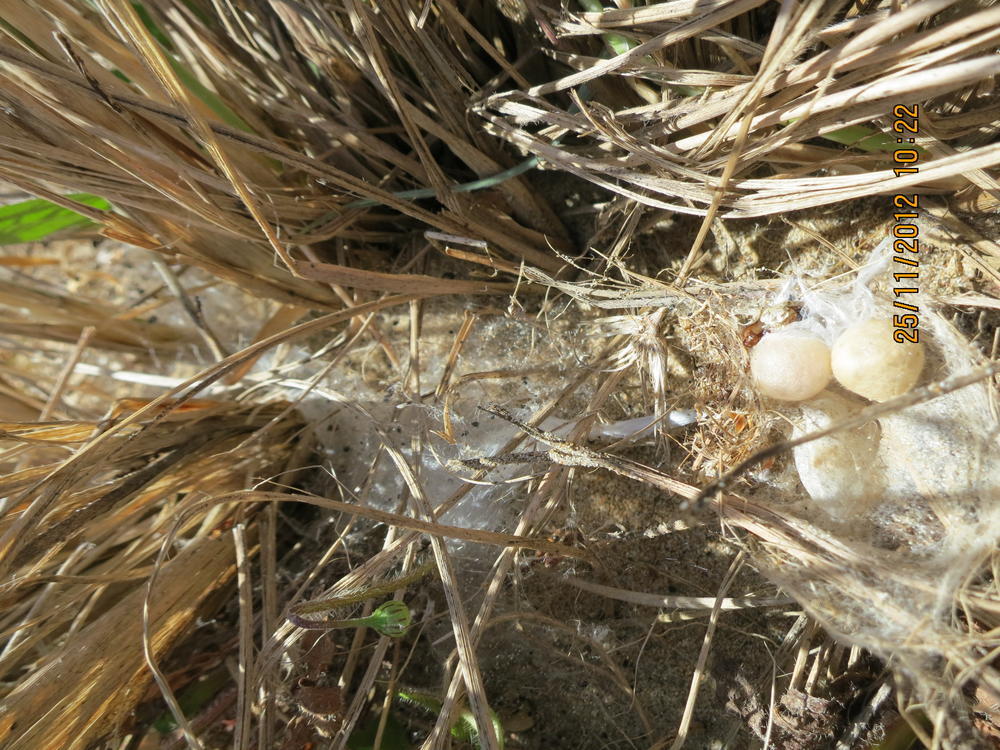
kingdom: Animalia
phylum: Arthropoda
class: Arachnida
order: Araneae
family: Theridiidae
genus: Latrodectus
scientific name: Latrodectus katipo
